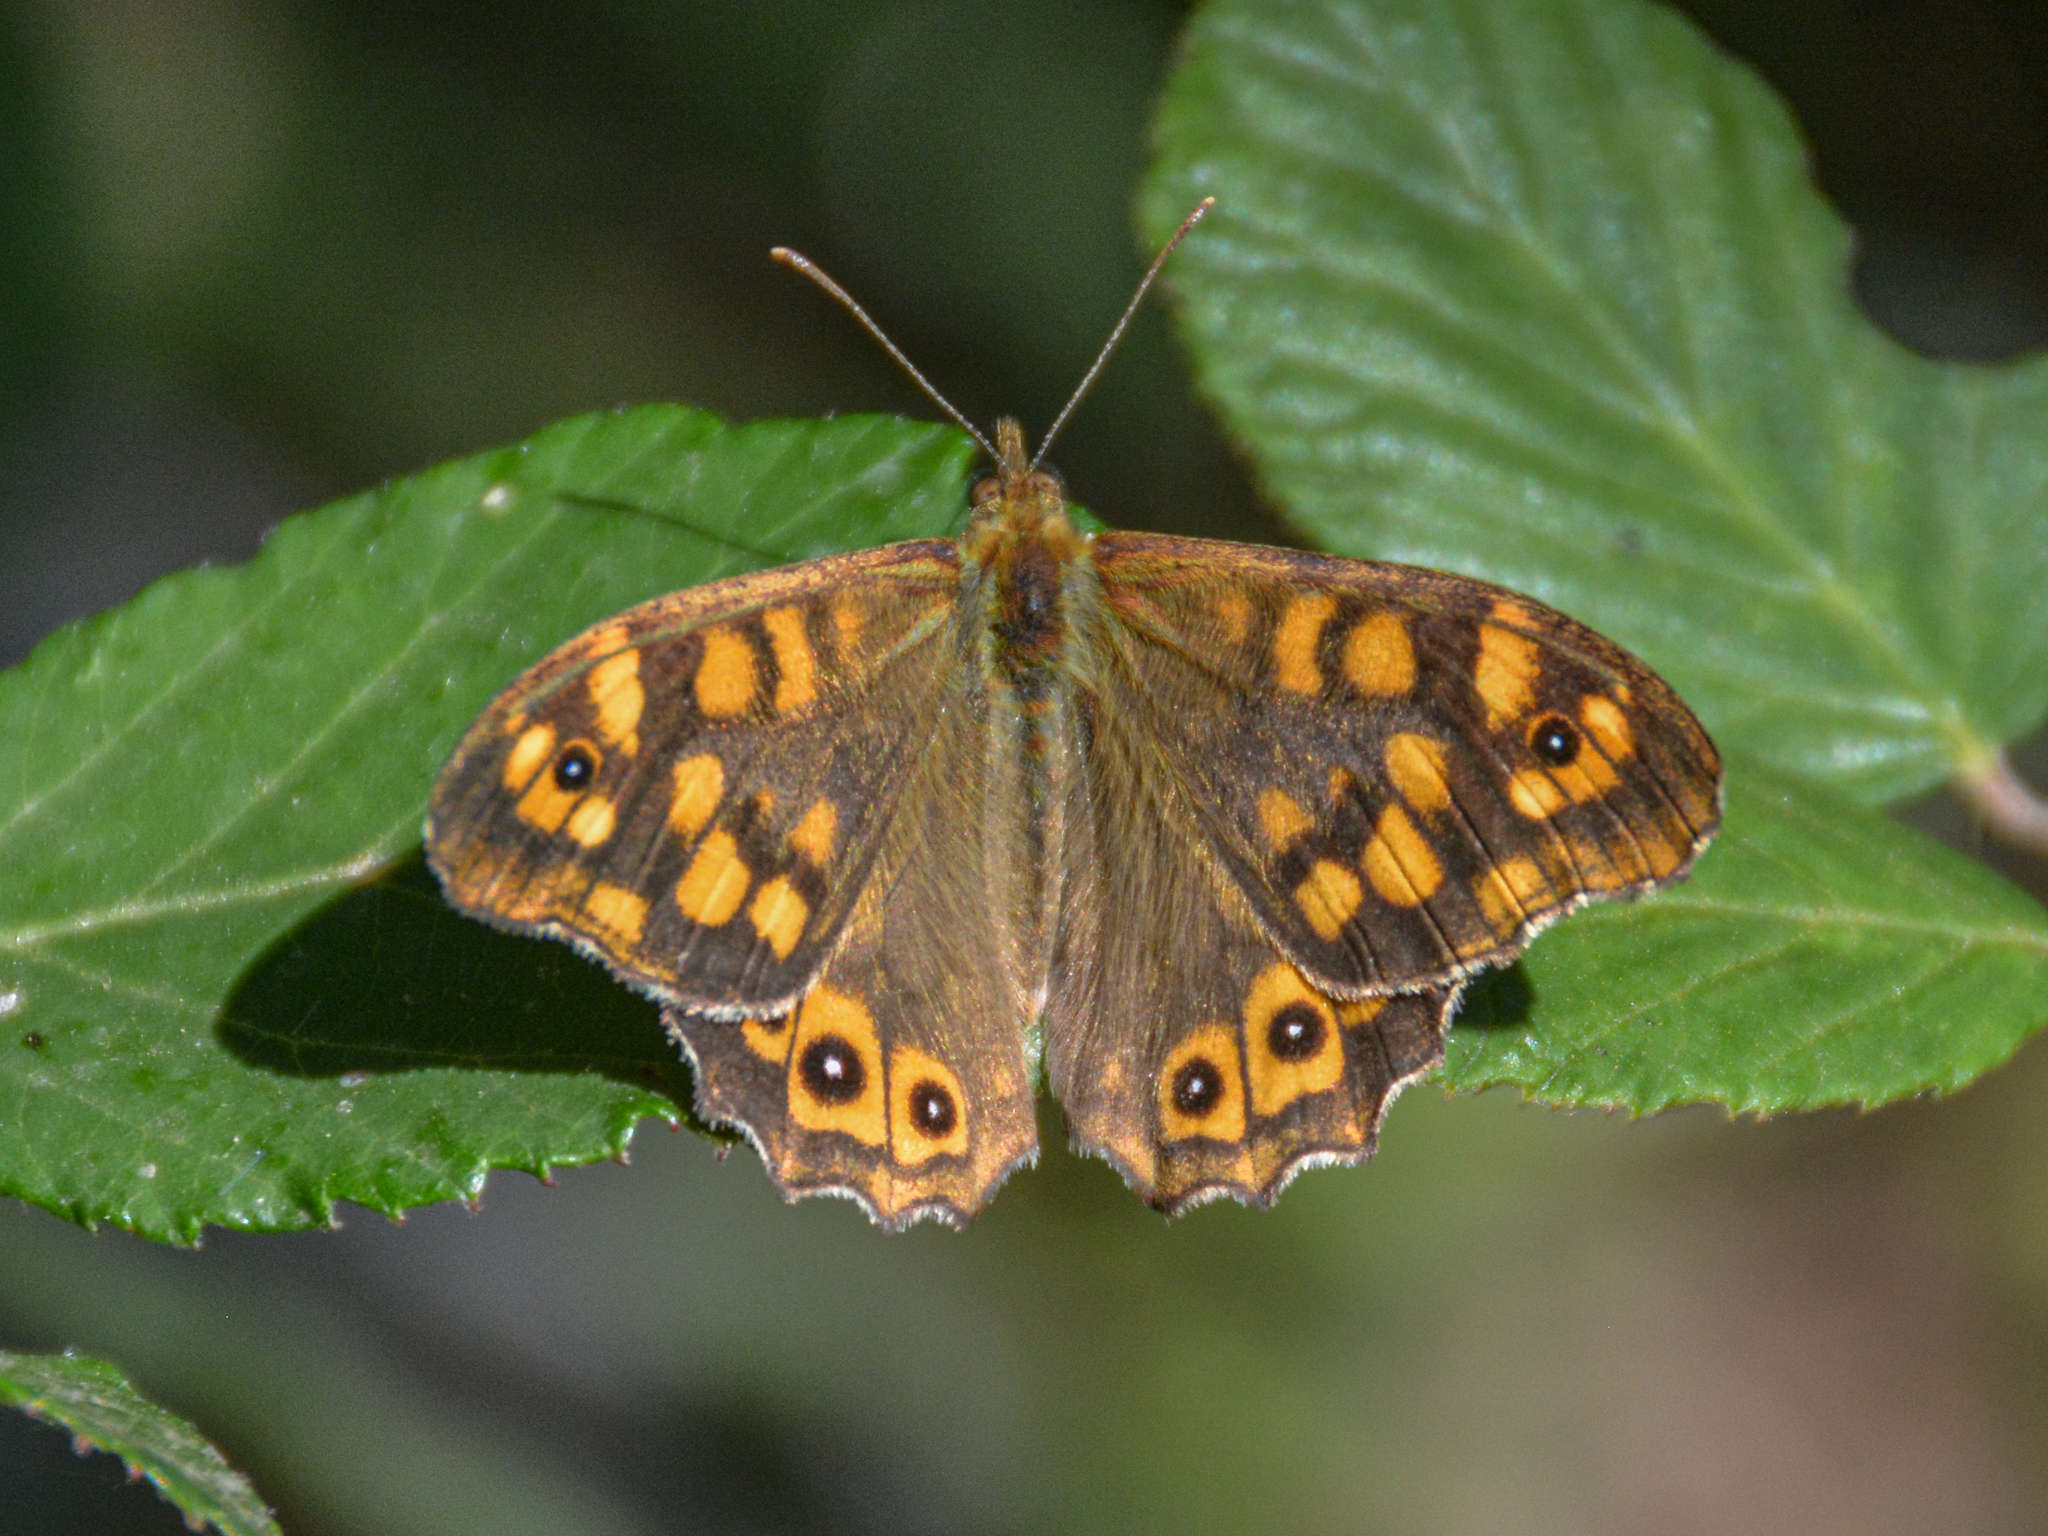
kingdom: Animalia
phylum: Arthropoda
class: Insecta
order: Lepidoptera
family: Nymphalidae
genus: Pararge
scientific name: Pararge aegeria
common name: Speckled wood
